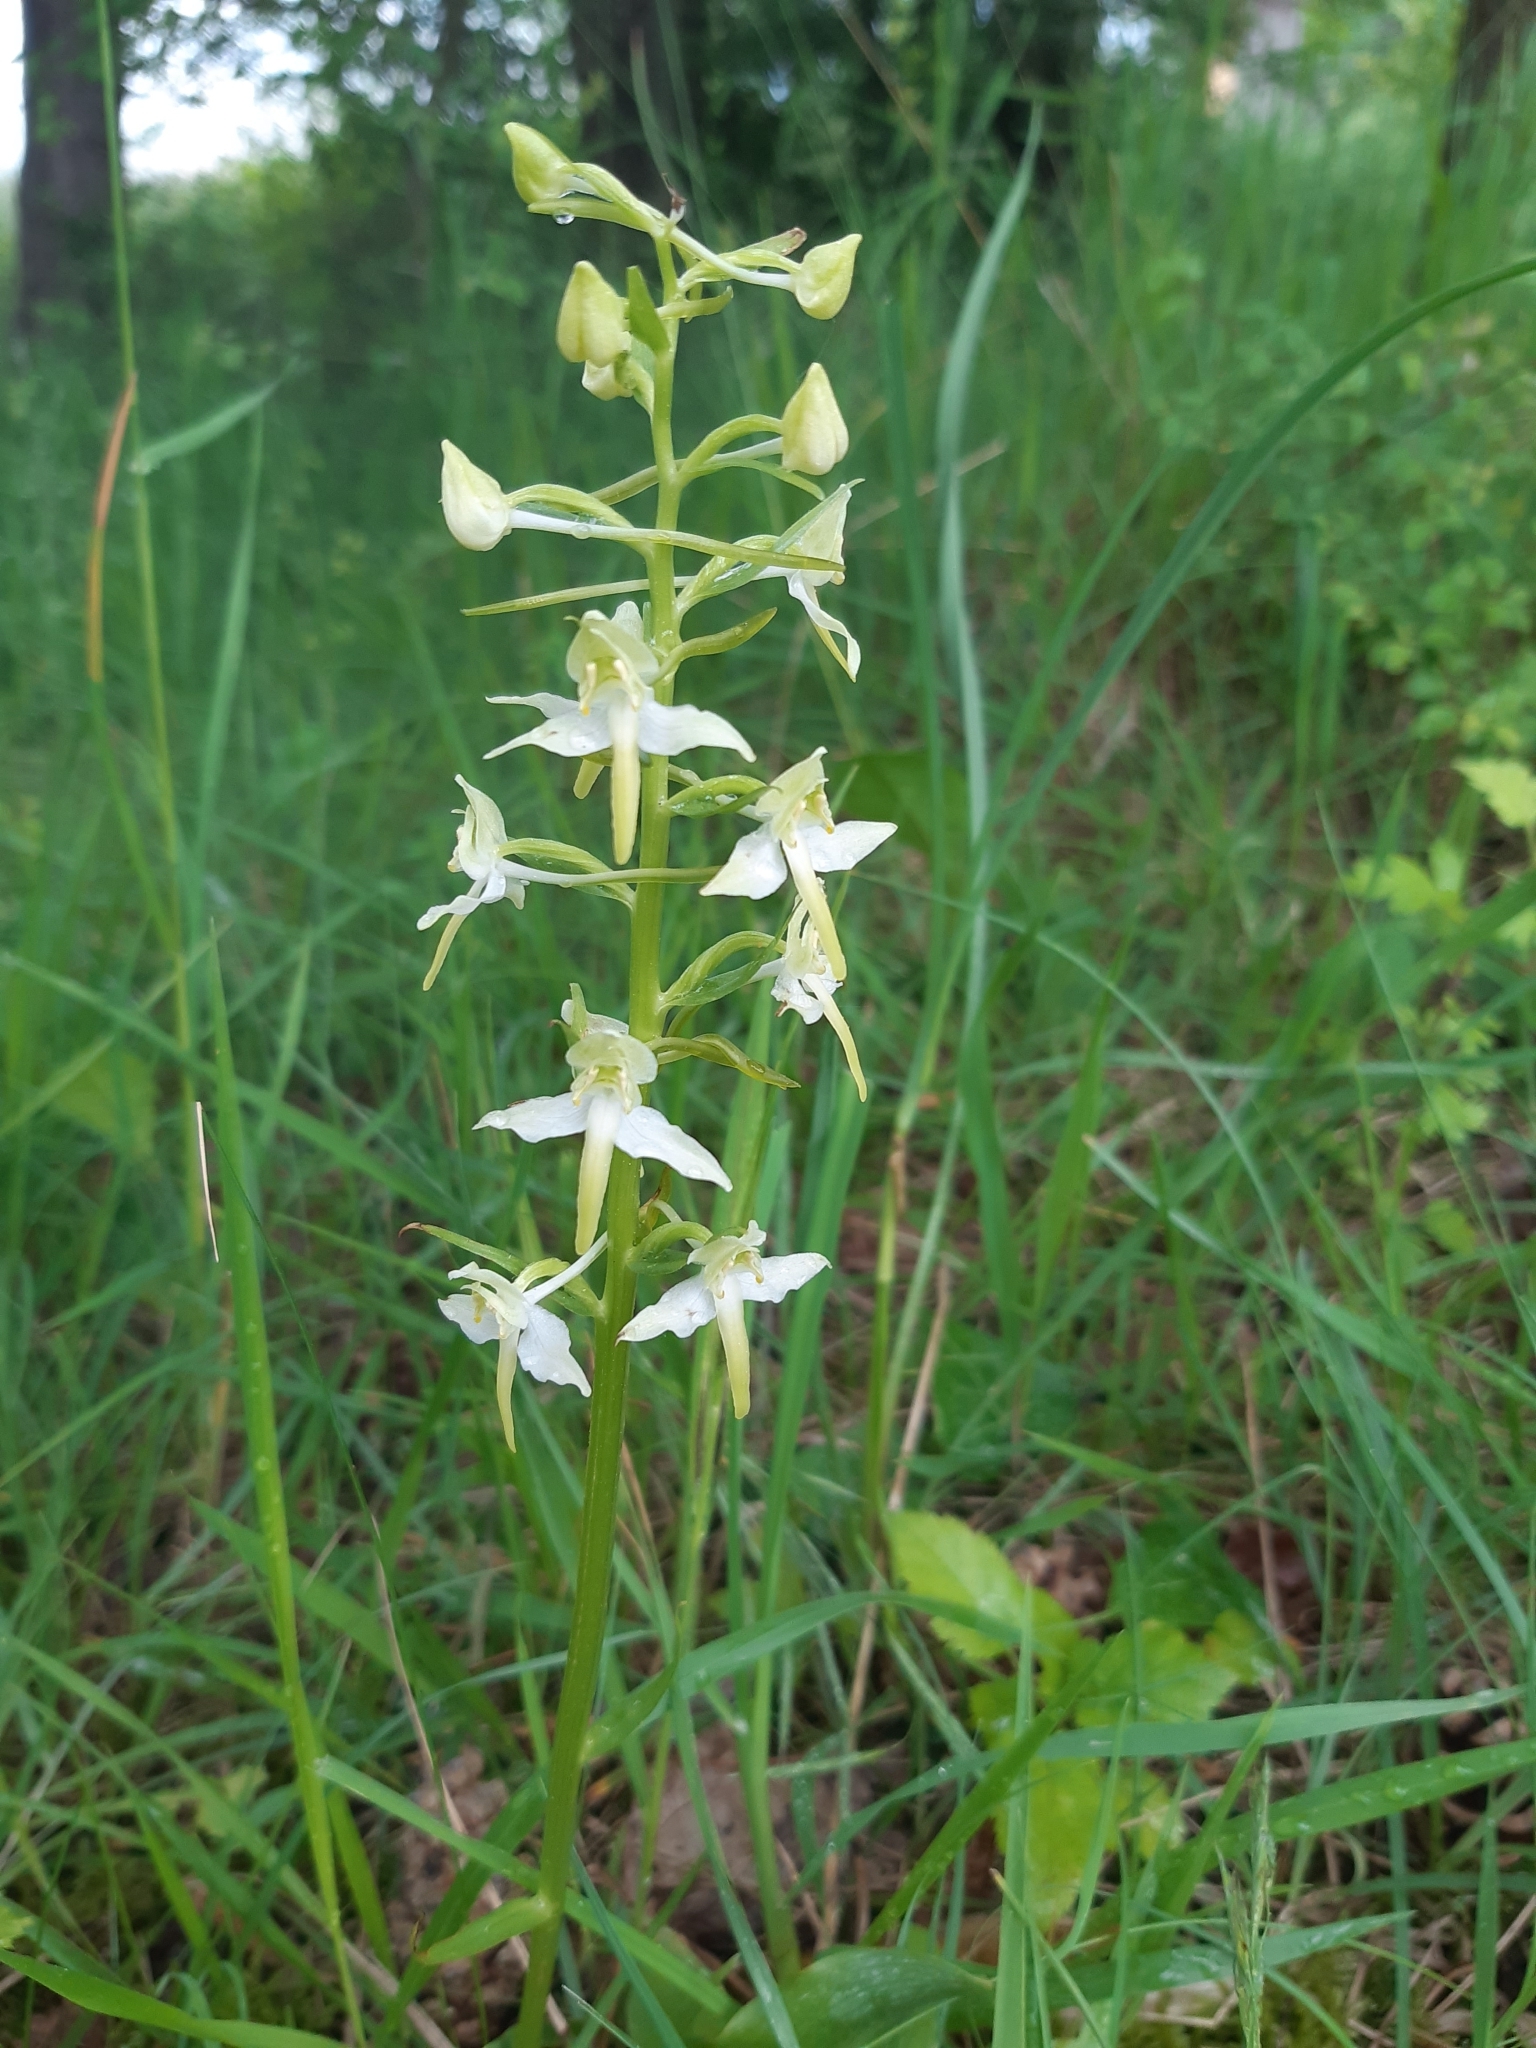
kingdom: Plantae
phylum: Tracheophyta
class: Liliopsida
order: Asparagales
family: Orchidaceae
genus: Platanthera
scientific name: Platanthera chlorantha
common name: Greater butterfly-orchid
